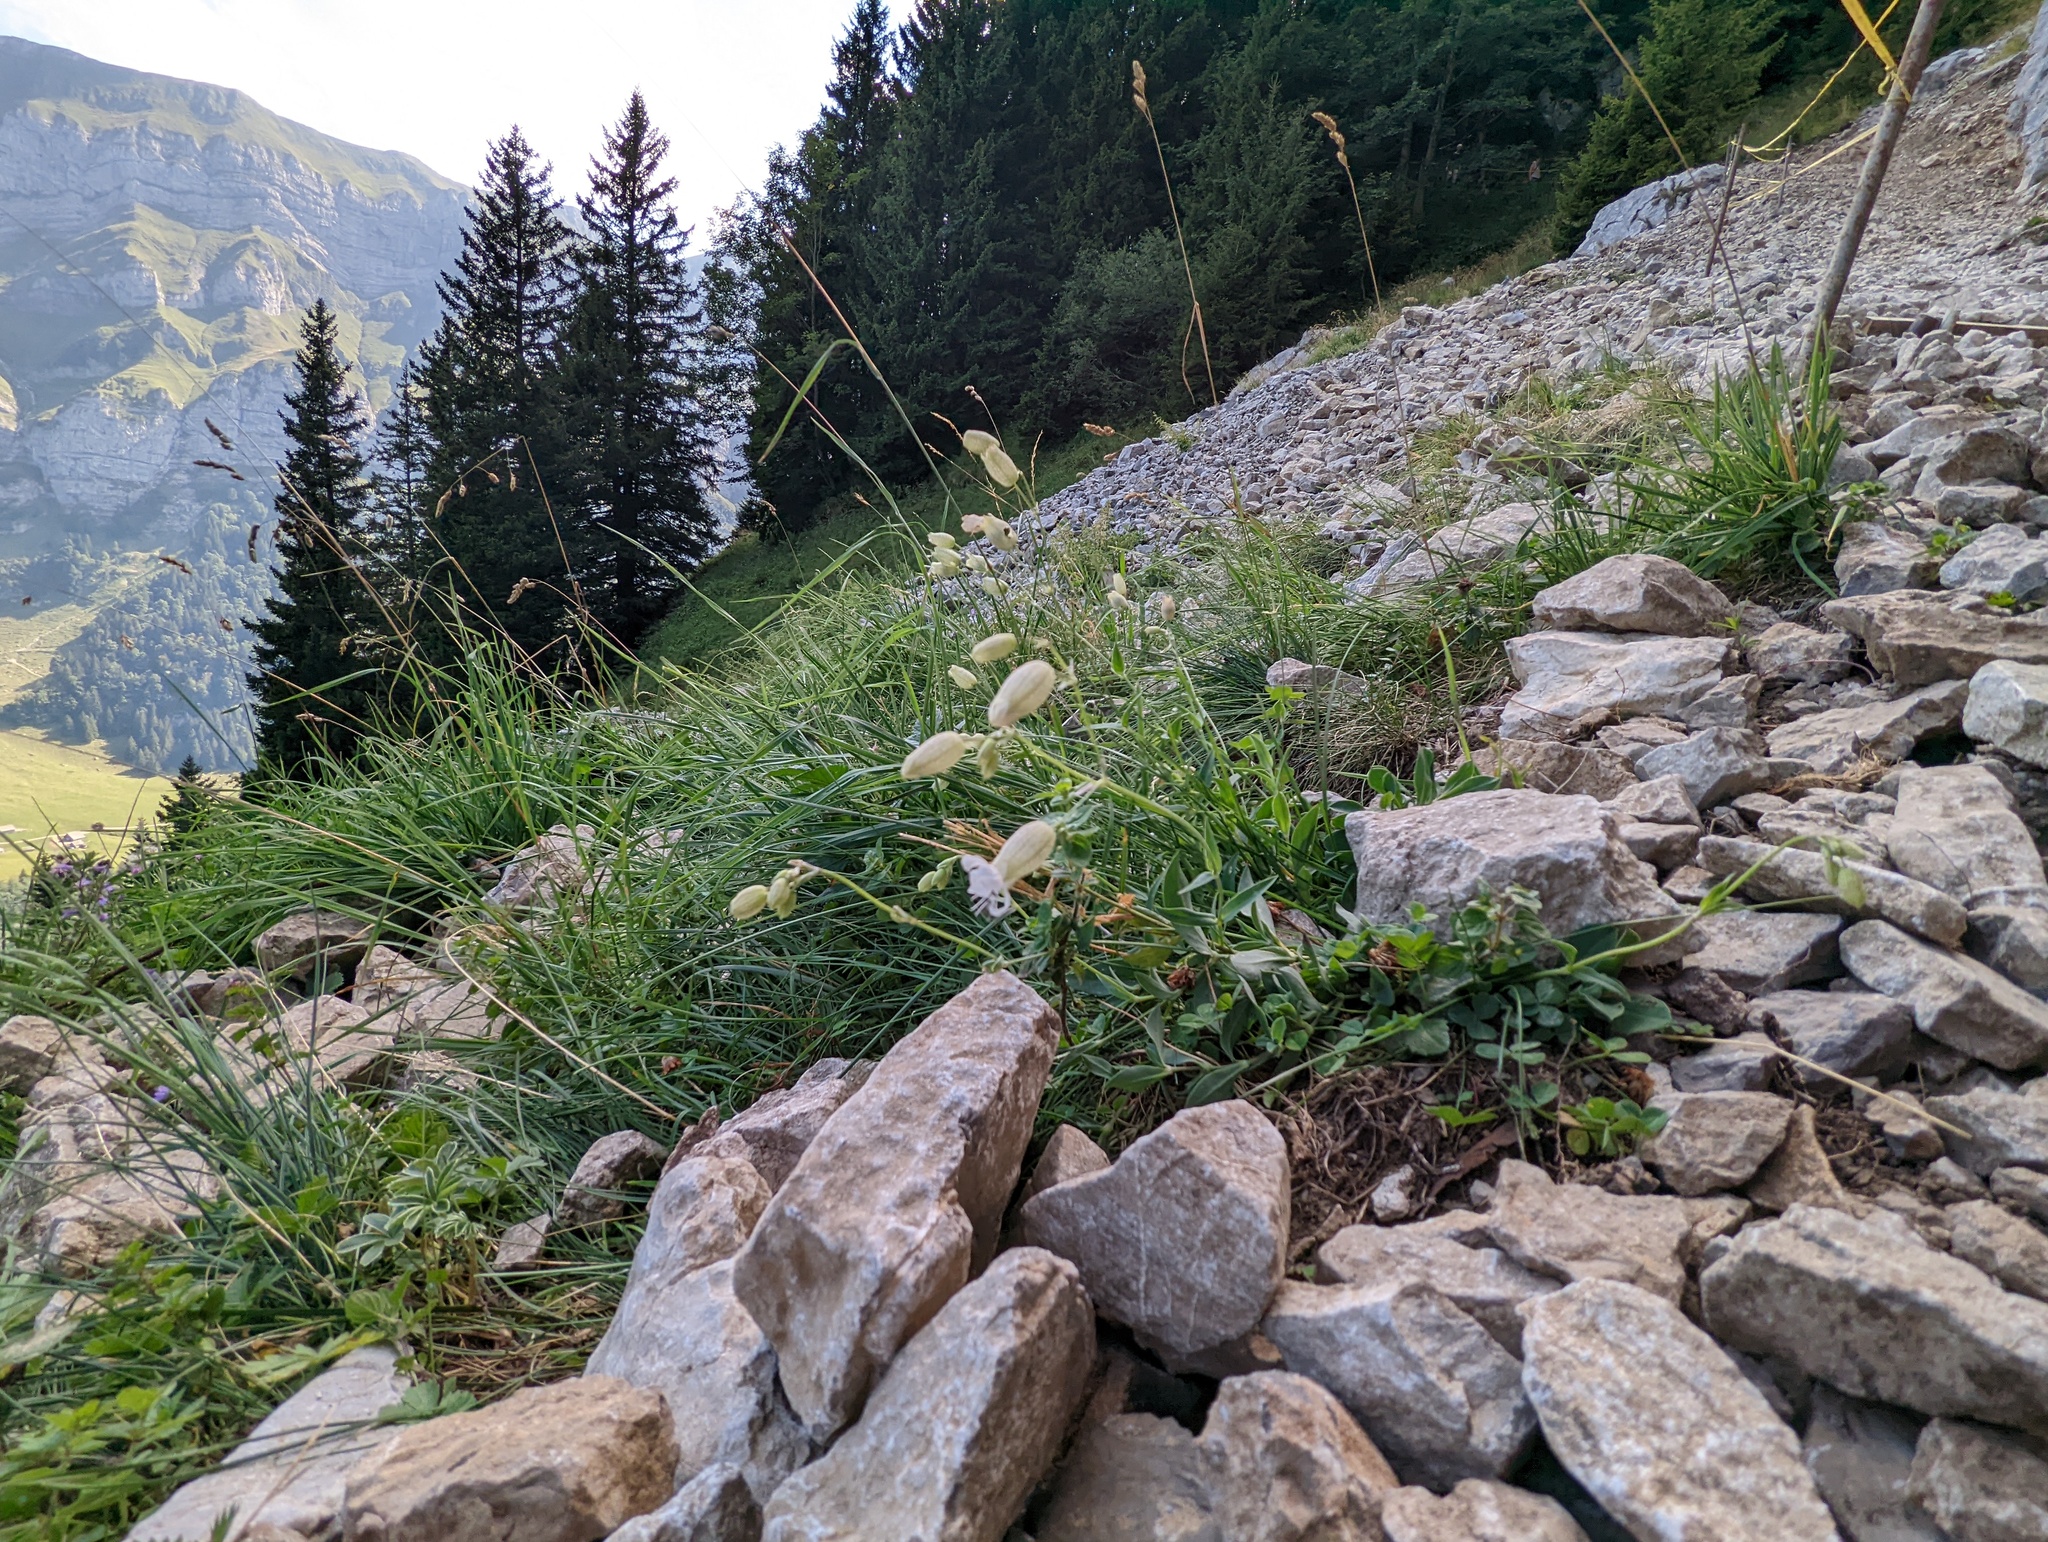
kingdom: Plantae
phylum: Tracheophyta
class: Magnoliopsida
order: Caryophyllales
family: Caryophyllaceae
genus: Silene
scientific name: Silene vulgaris
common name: Bladder campion
